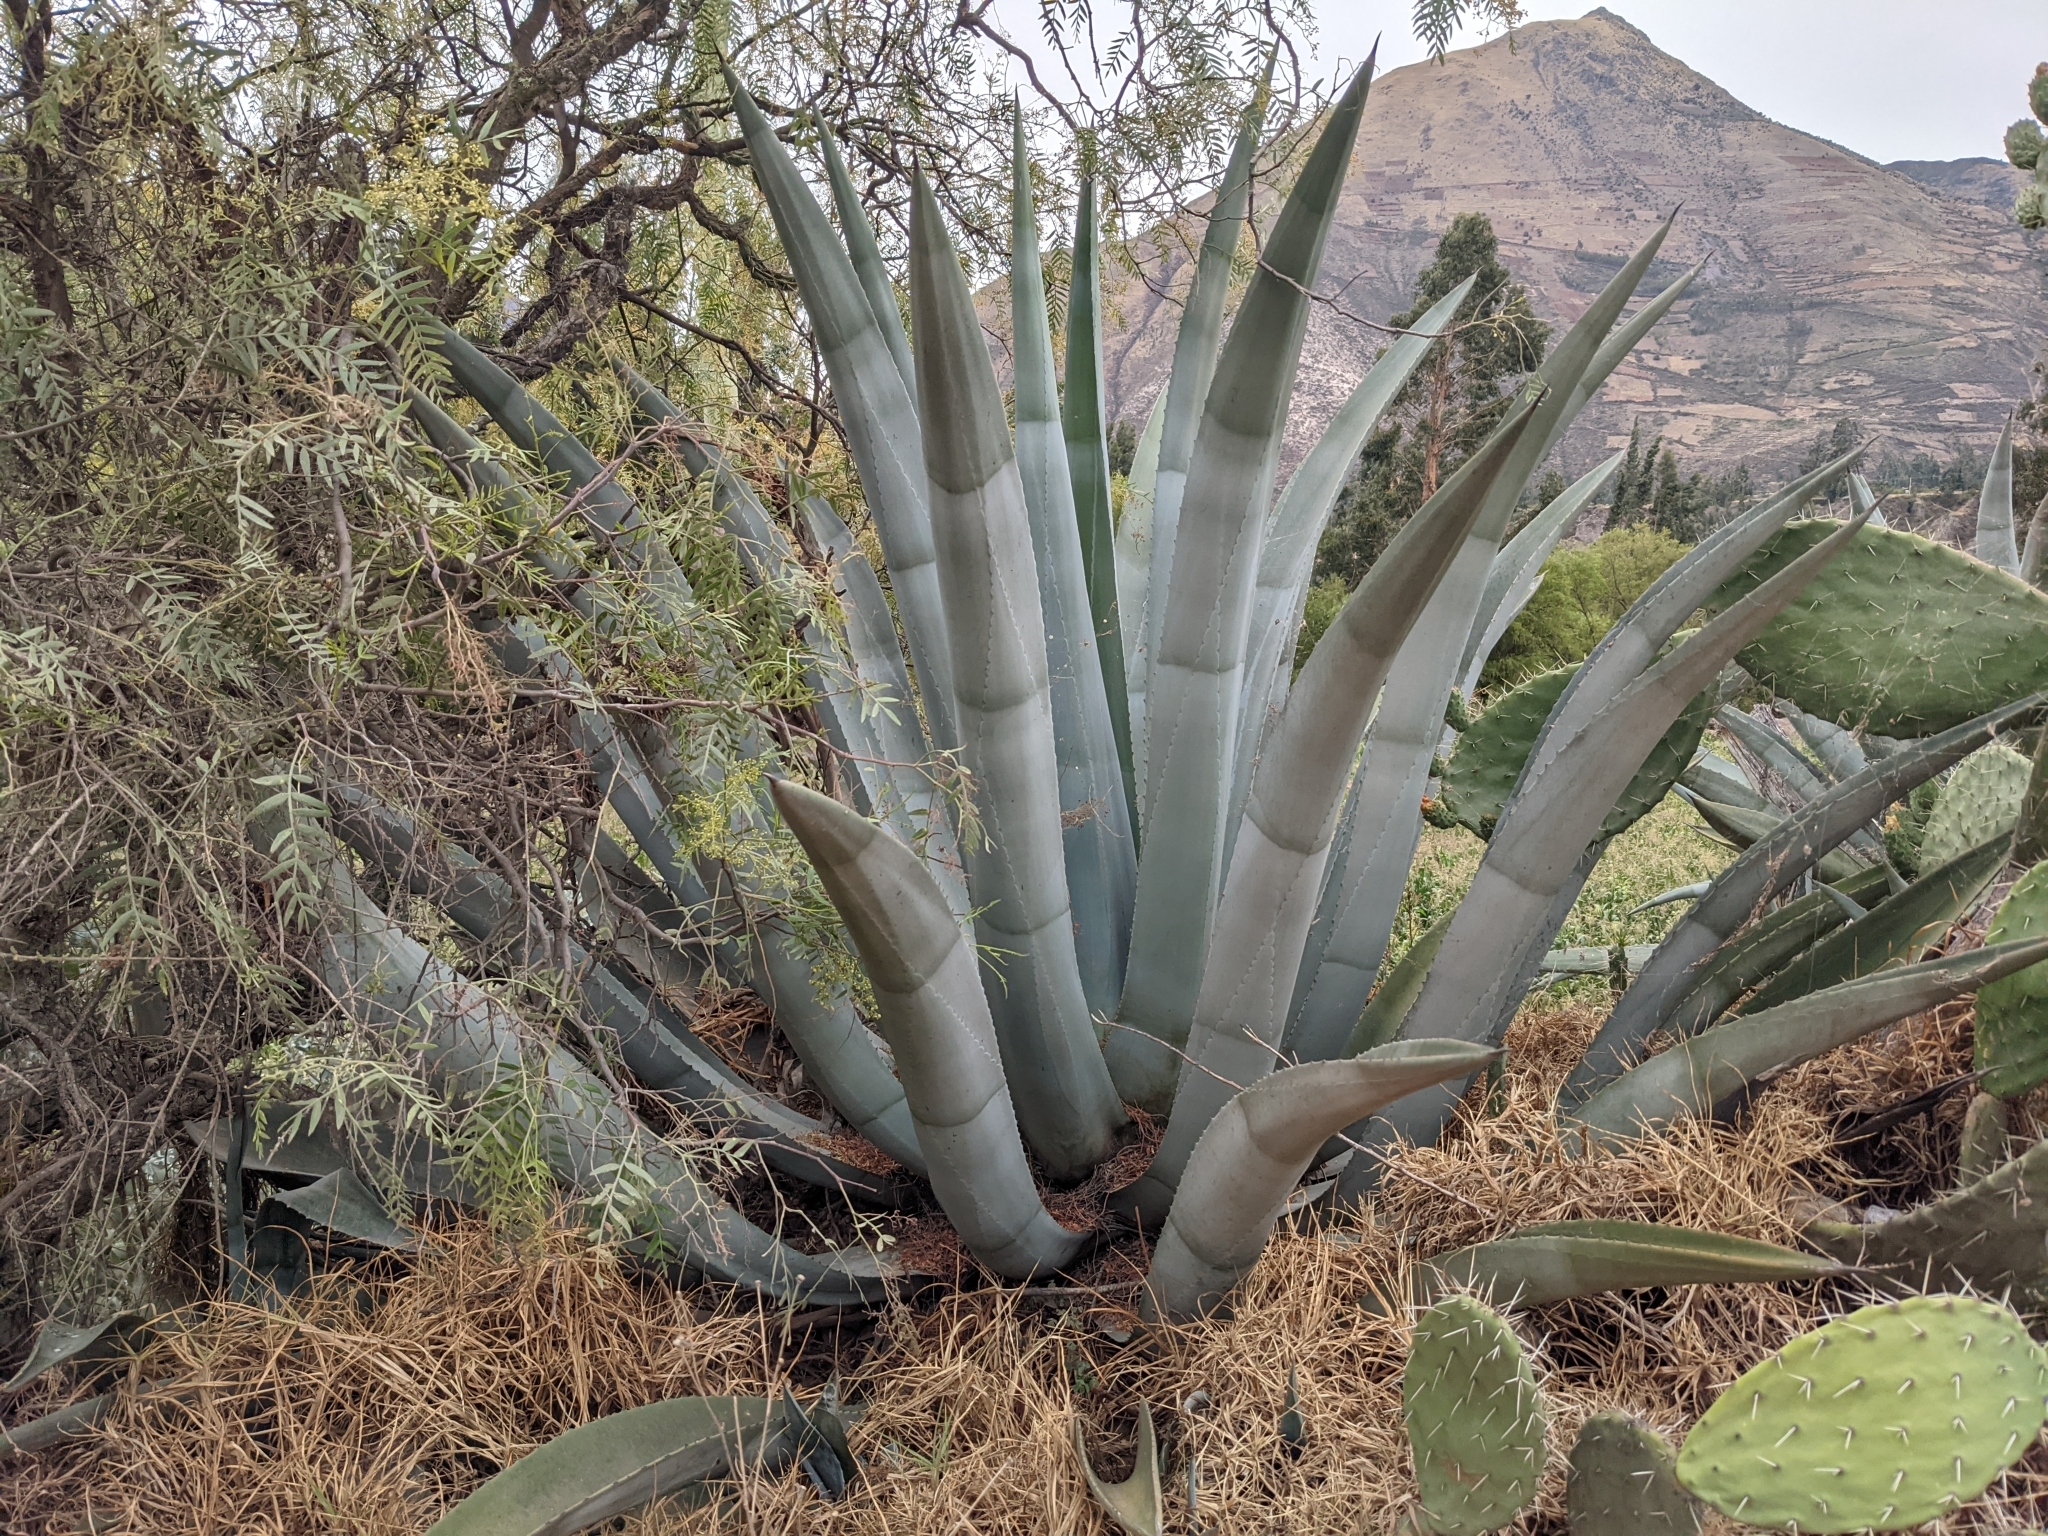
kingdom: Plantae
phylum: Tracheophyta
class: Liliopsida
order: Asparagales
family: Asparagaceae
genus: Agave
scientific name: Agave americana
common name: Centuryplant
